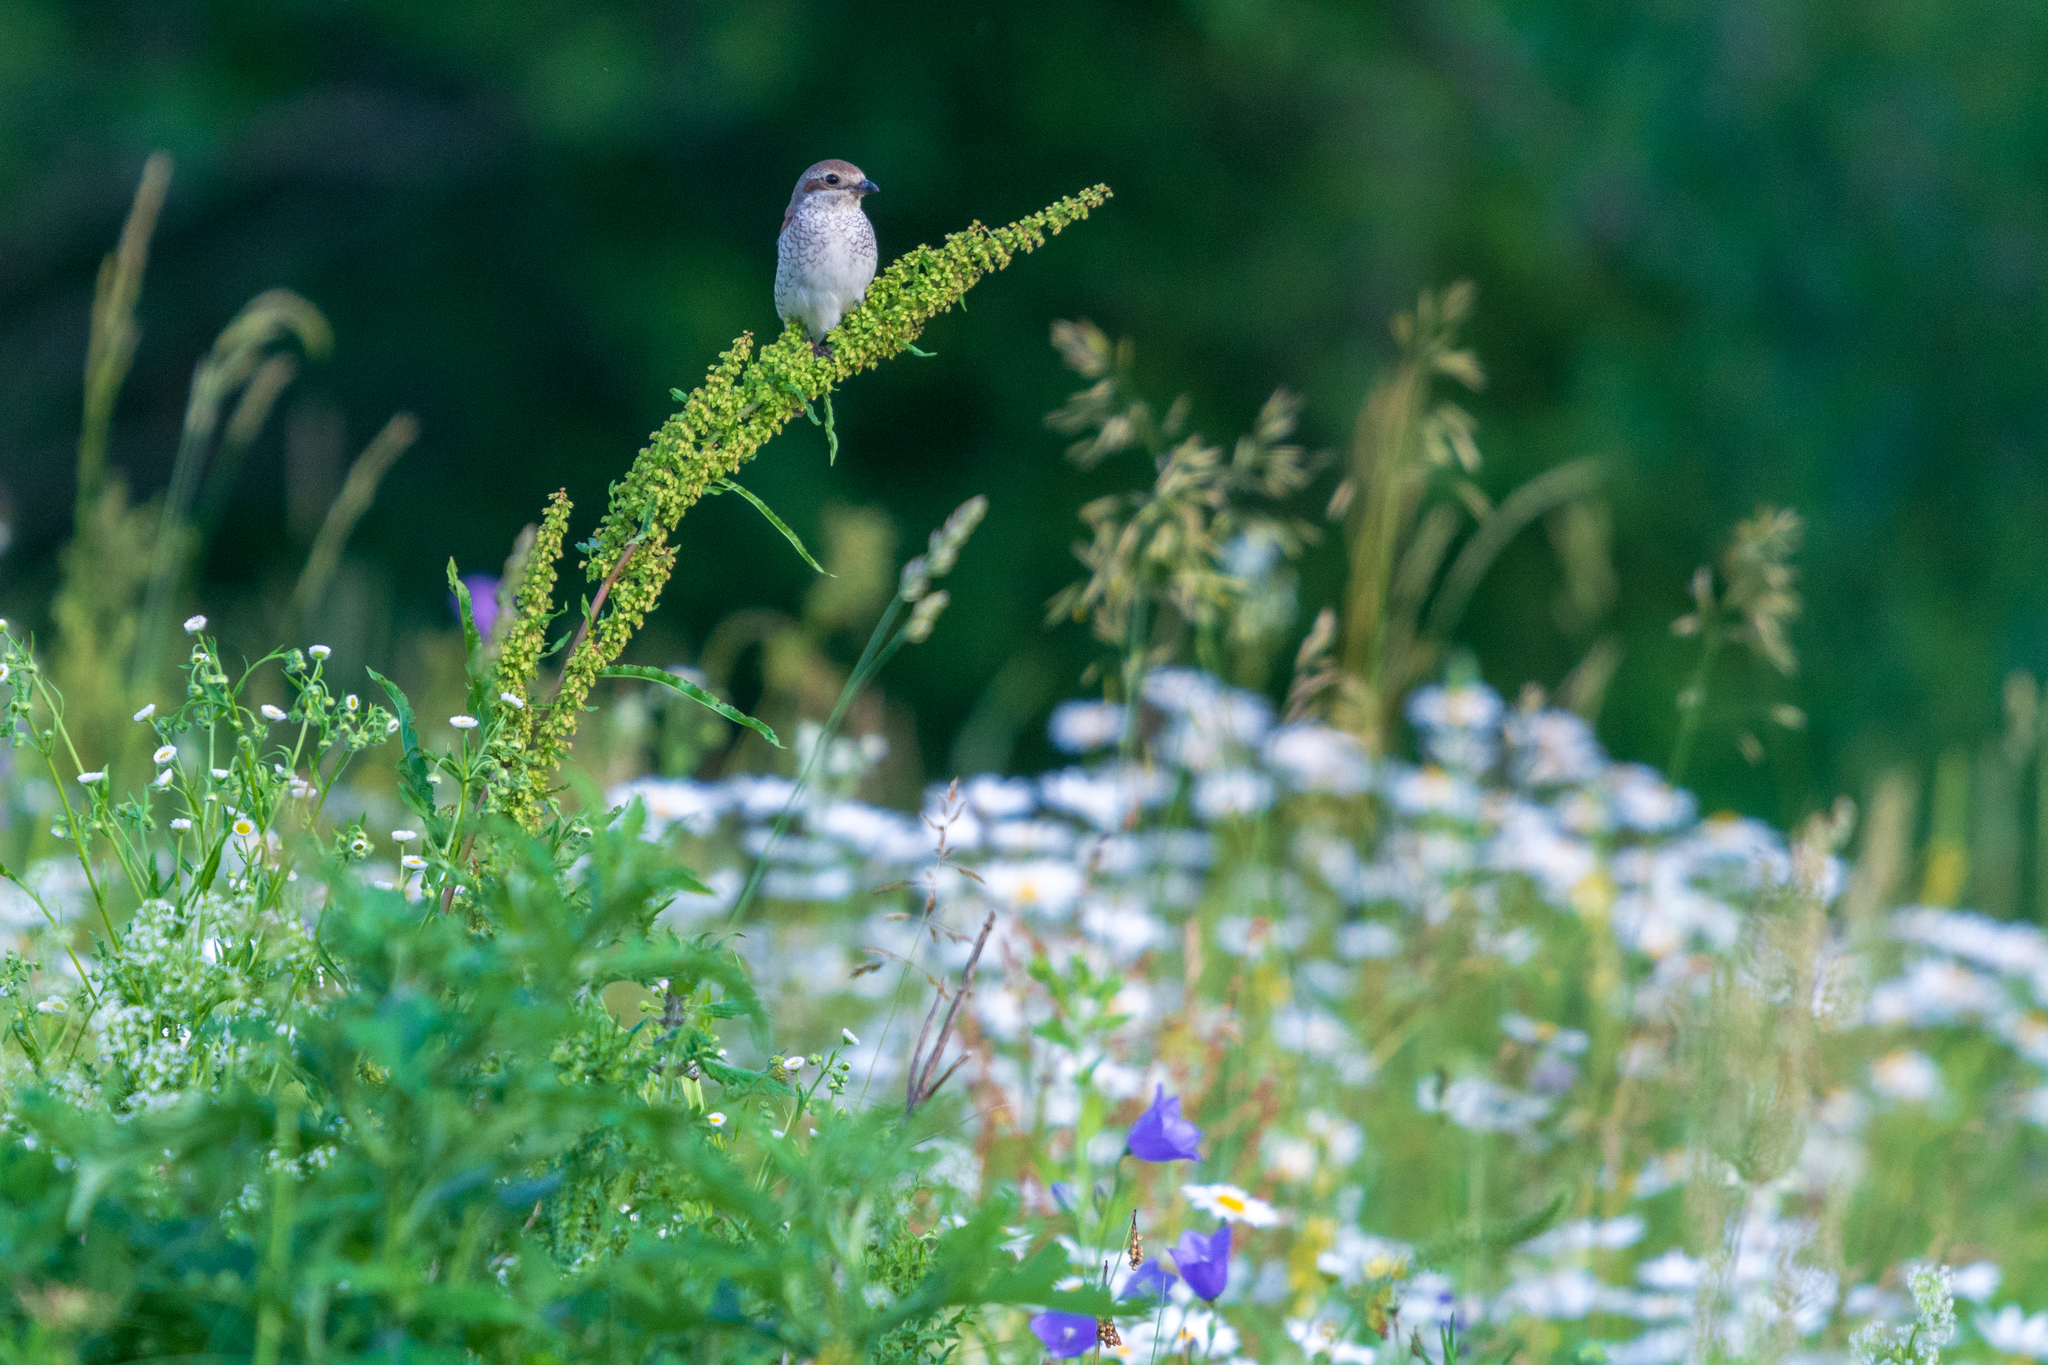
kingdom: Animalia
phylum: Chordata
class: Aves
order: Passeriformes
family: Laniidae
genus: Lanius
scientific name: Lanius collurio
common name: Red-backed shrike
